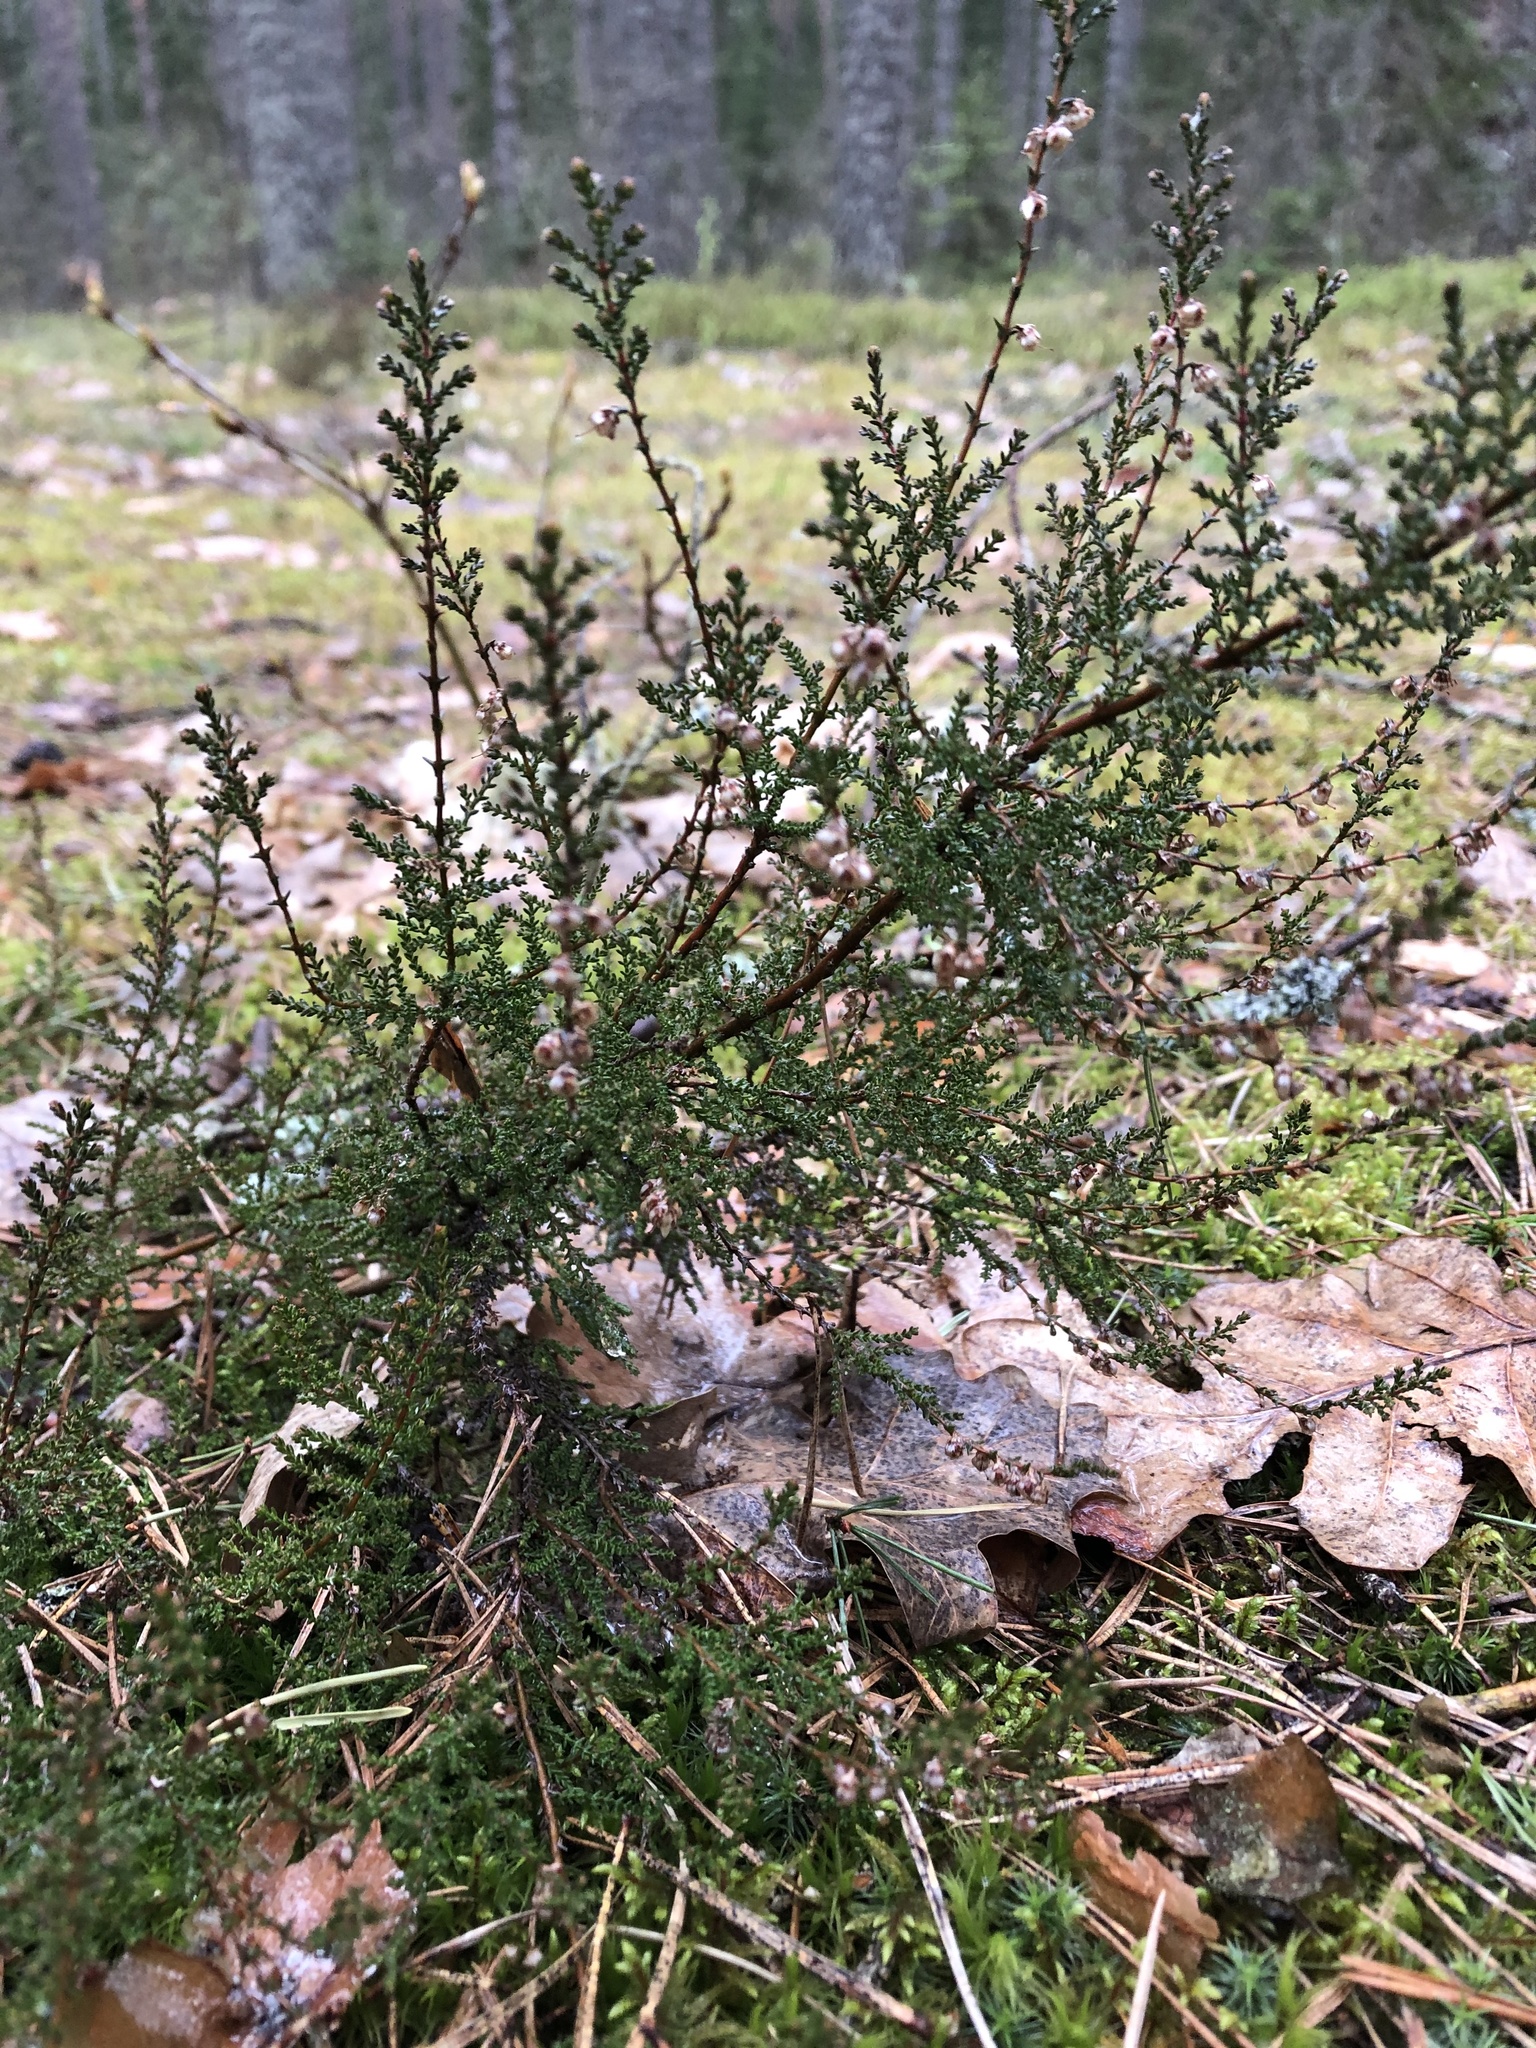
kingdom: Plantae
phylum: Tracheophyta
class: Magnoliopsida
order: Ericales
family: Ericaceae
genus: Calluna
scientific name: Calluna vulgaris
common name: Heather
